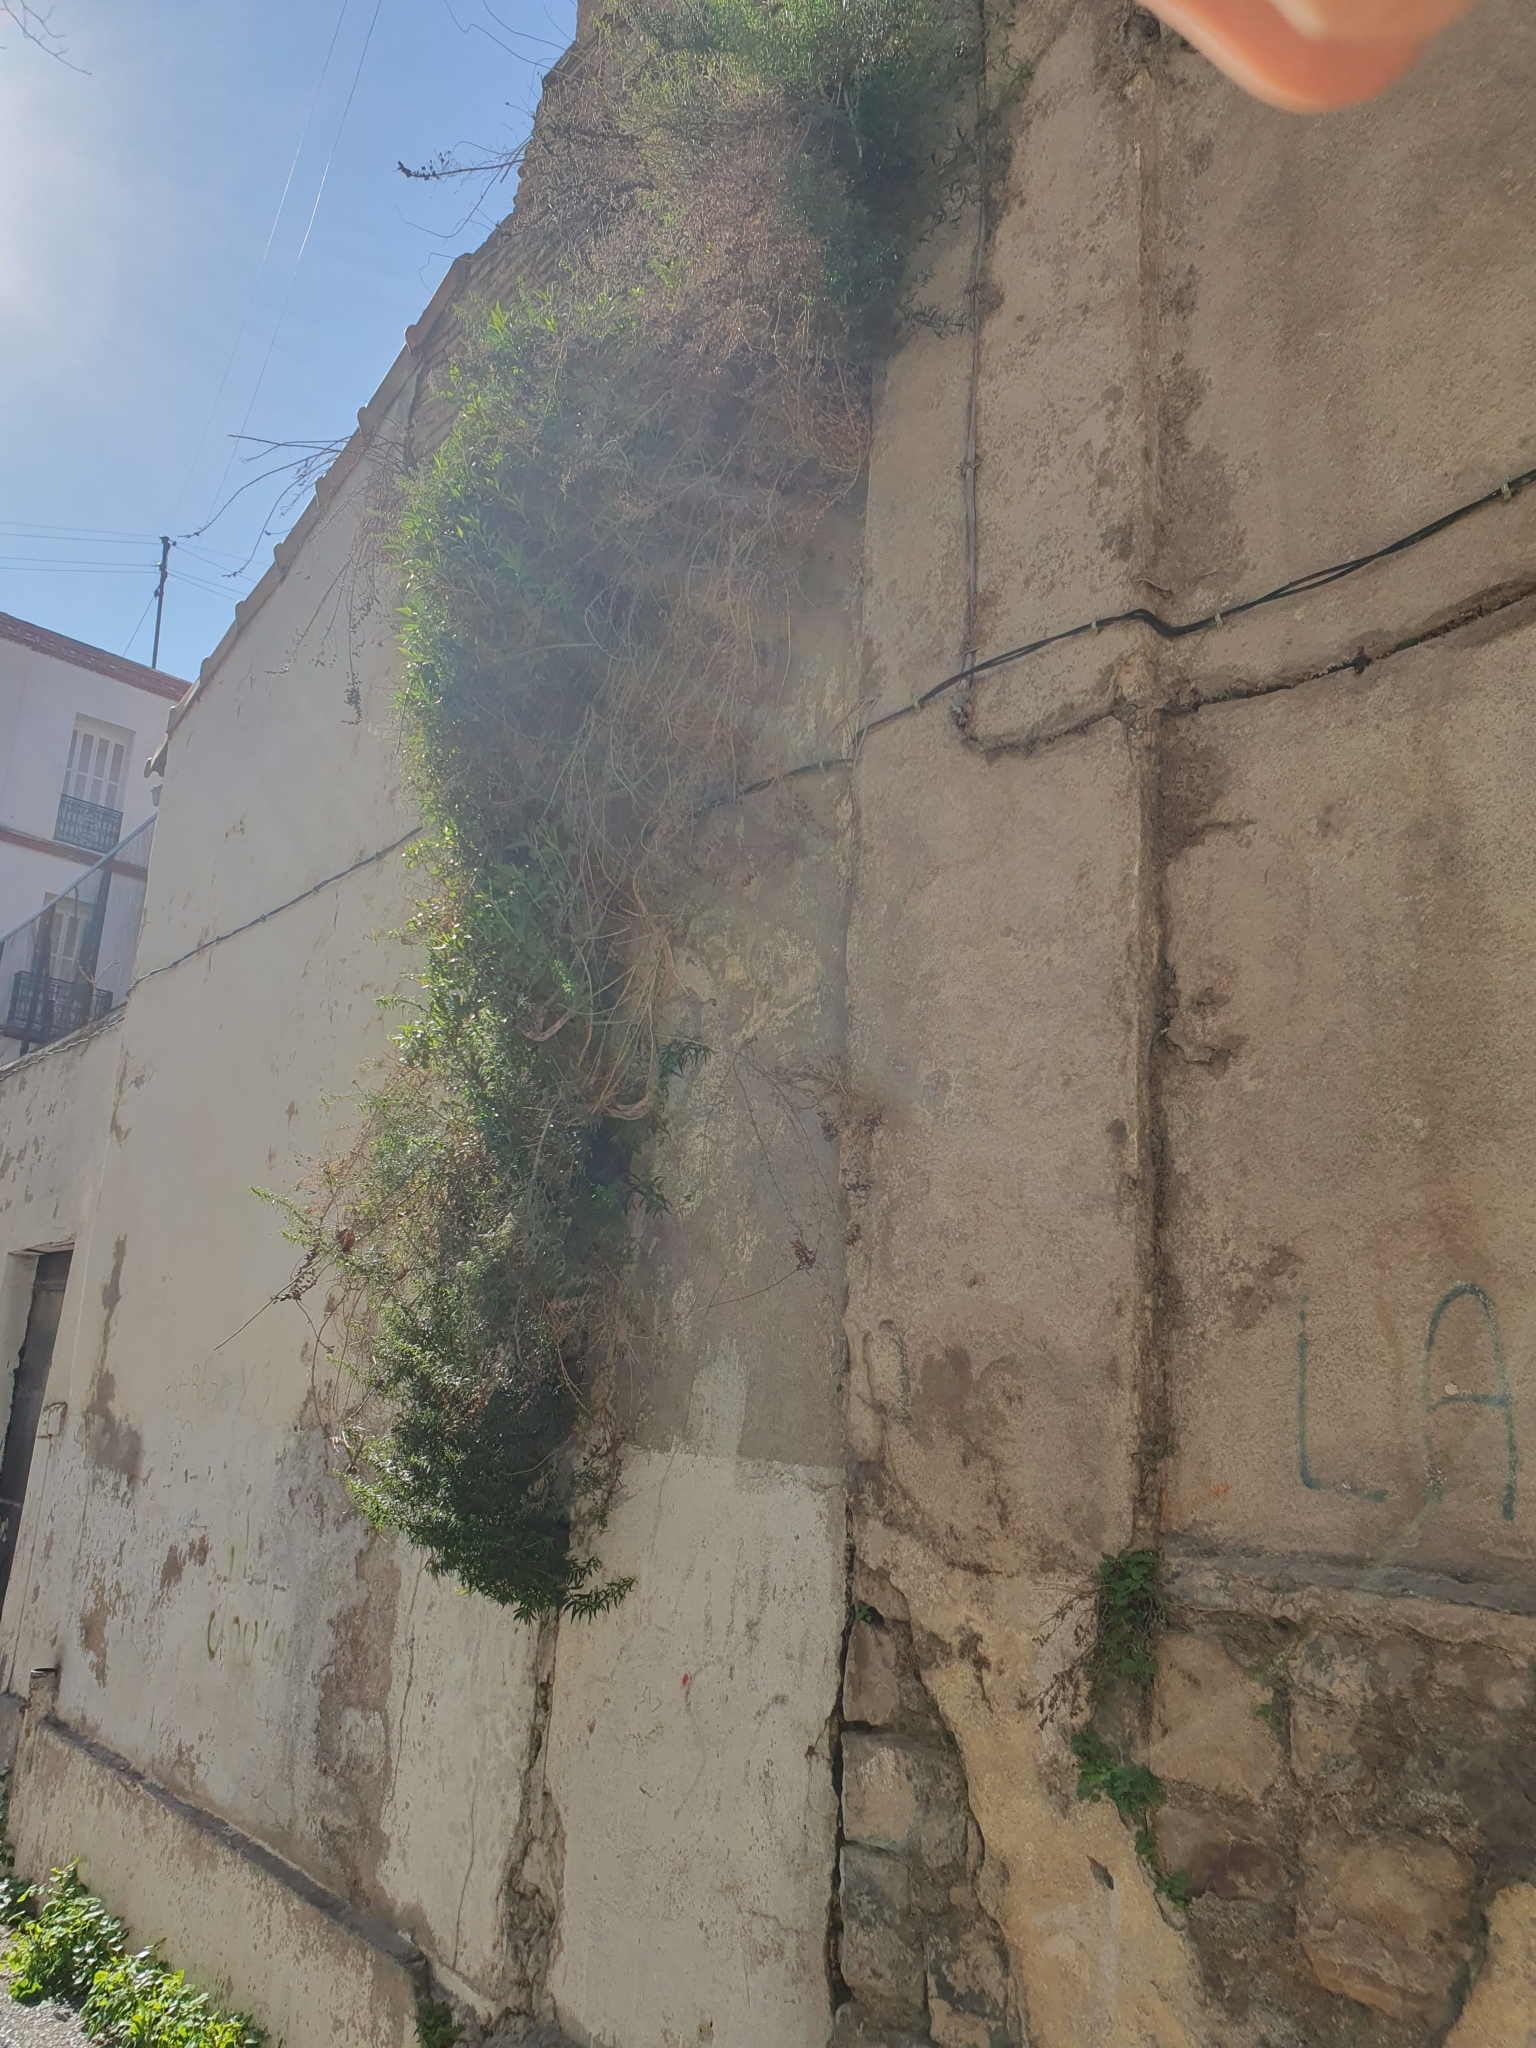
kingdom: Plantae
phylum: Tracheophyta
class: Magnoliopsida
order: Lamiales
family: Plantaginaceae
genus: Antirrhinum
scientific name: Antirrhinum tortuosum
